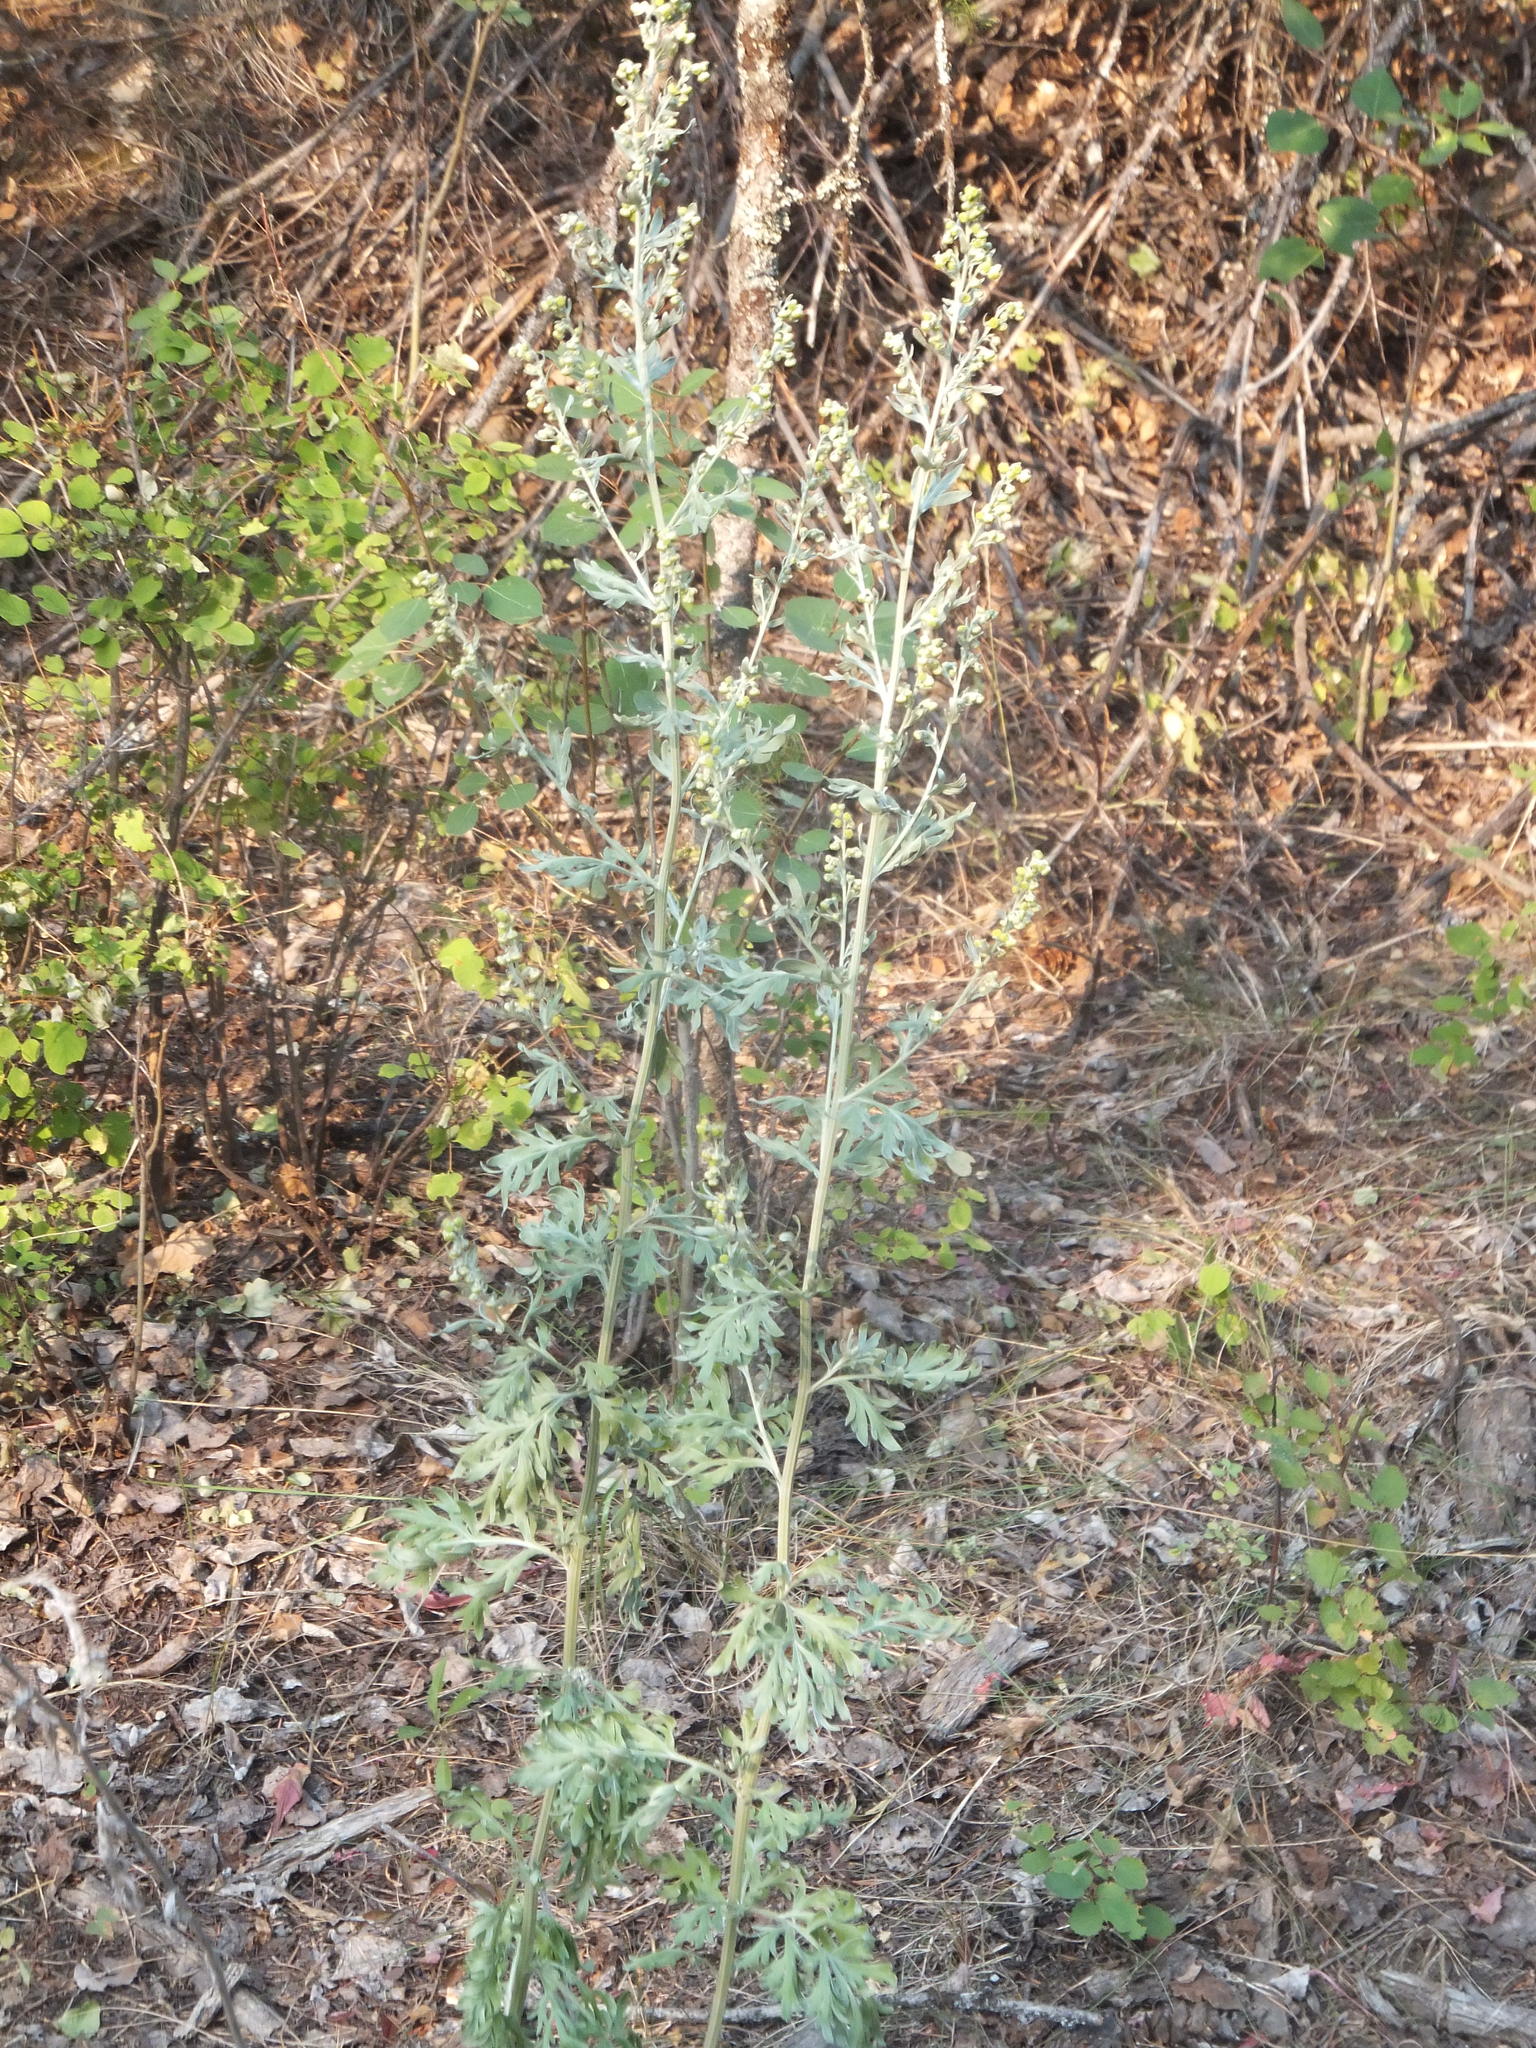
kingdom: Plantae
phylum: Tracheophyta
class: Magnoliopsida
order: Asterales
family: Asteraceae
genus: Artemisia
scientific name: Artemisia absinthium
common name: Wormwood
